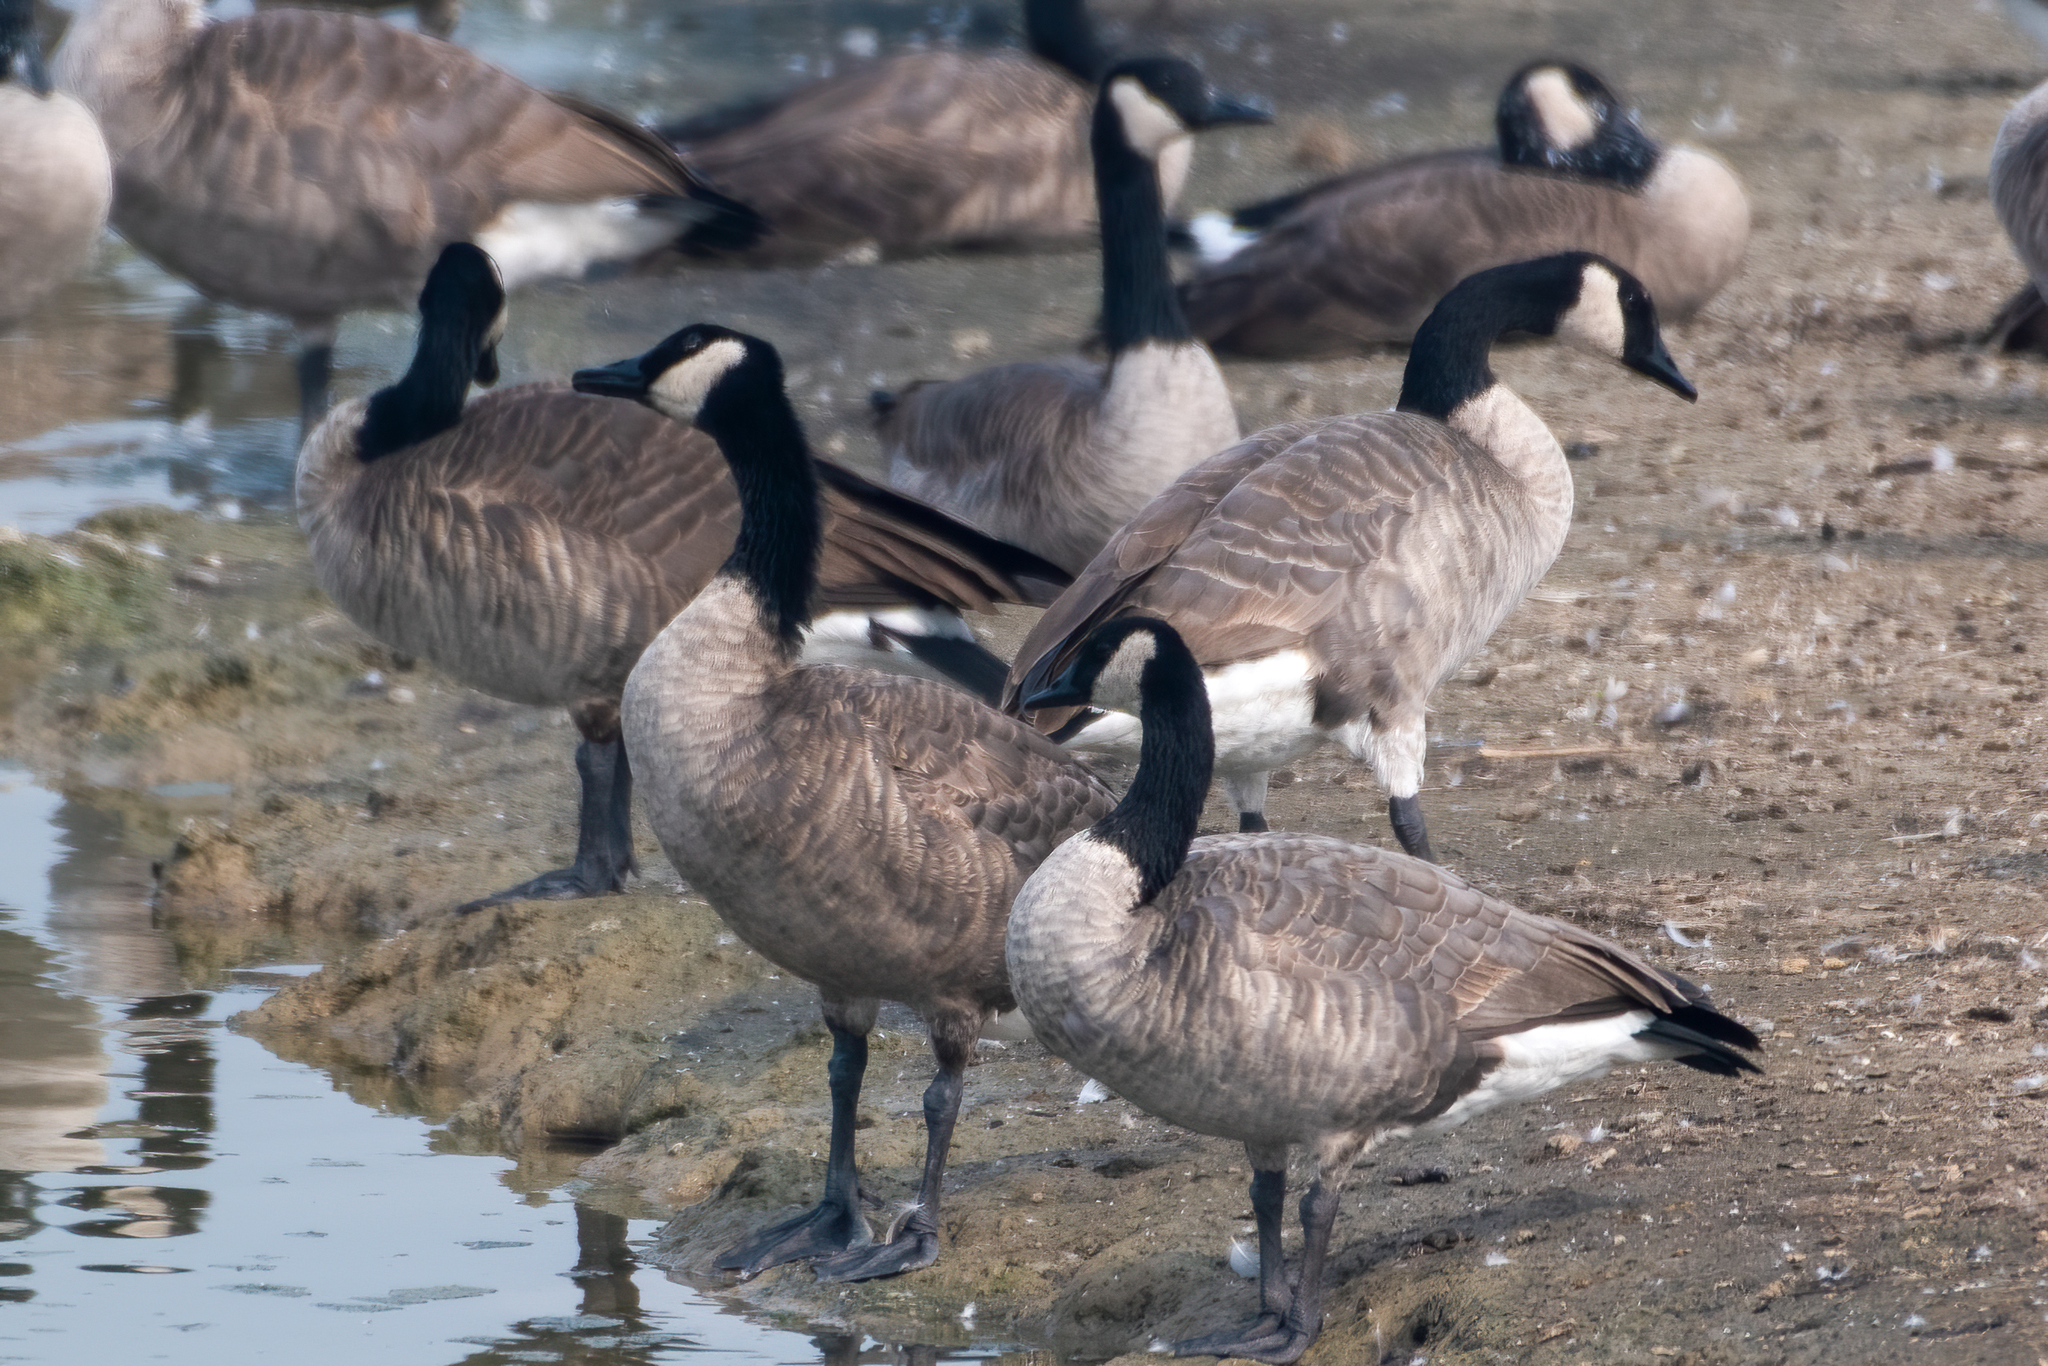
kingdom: Animalia
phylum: Chordata
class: Aves
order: Anseriformes
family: Anatidae
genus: Branta
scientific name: Branta canadensis
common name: Canada goose
